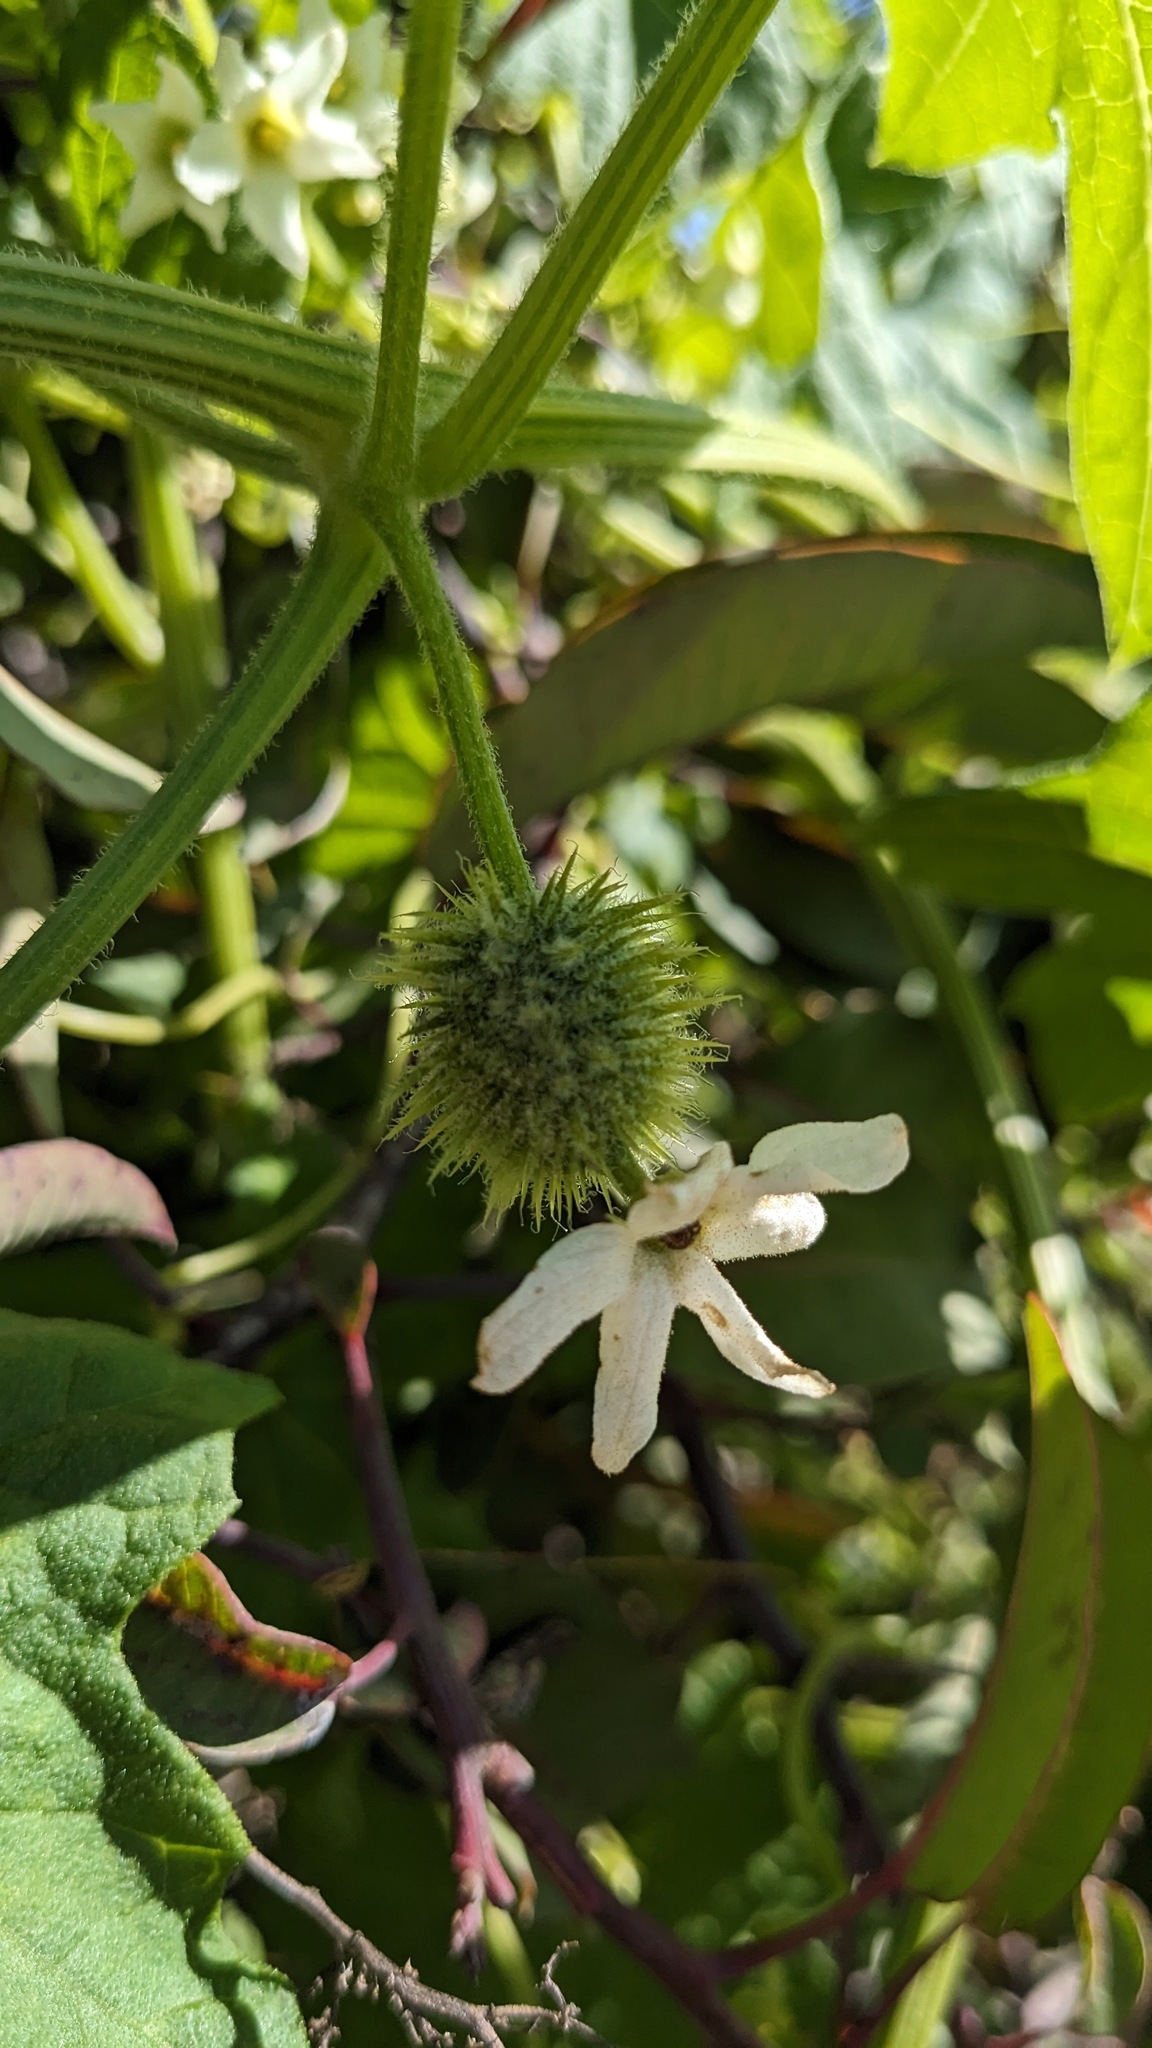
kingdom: Plantae
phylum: Tracheophyta
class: Magnoliopsida
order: Cucurbitales
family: Cucurbitaceae
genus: Marah
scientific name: Marah macrocarpa
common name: Cucamonga manroot
